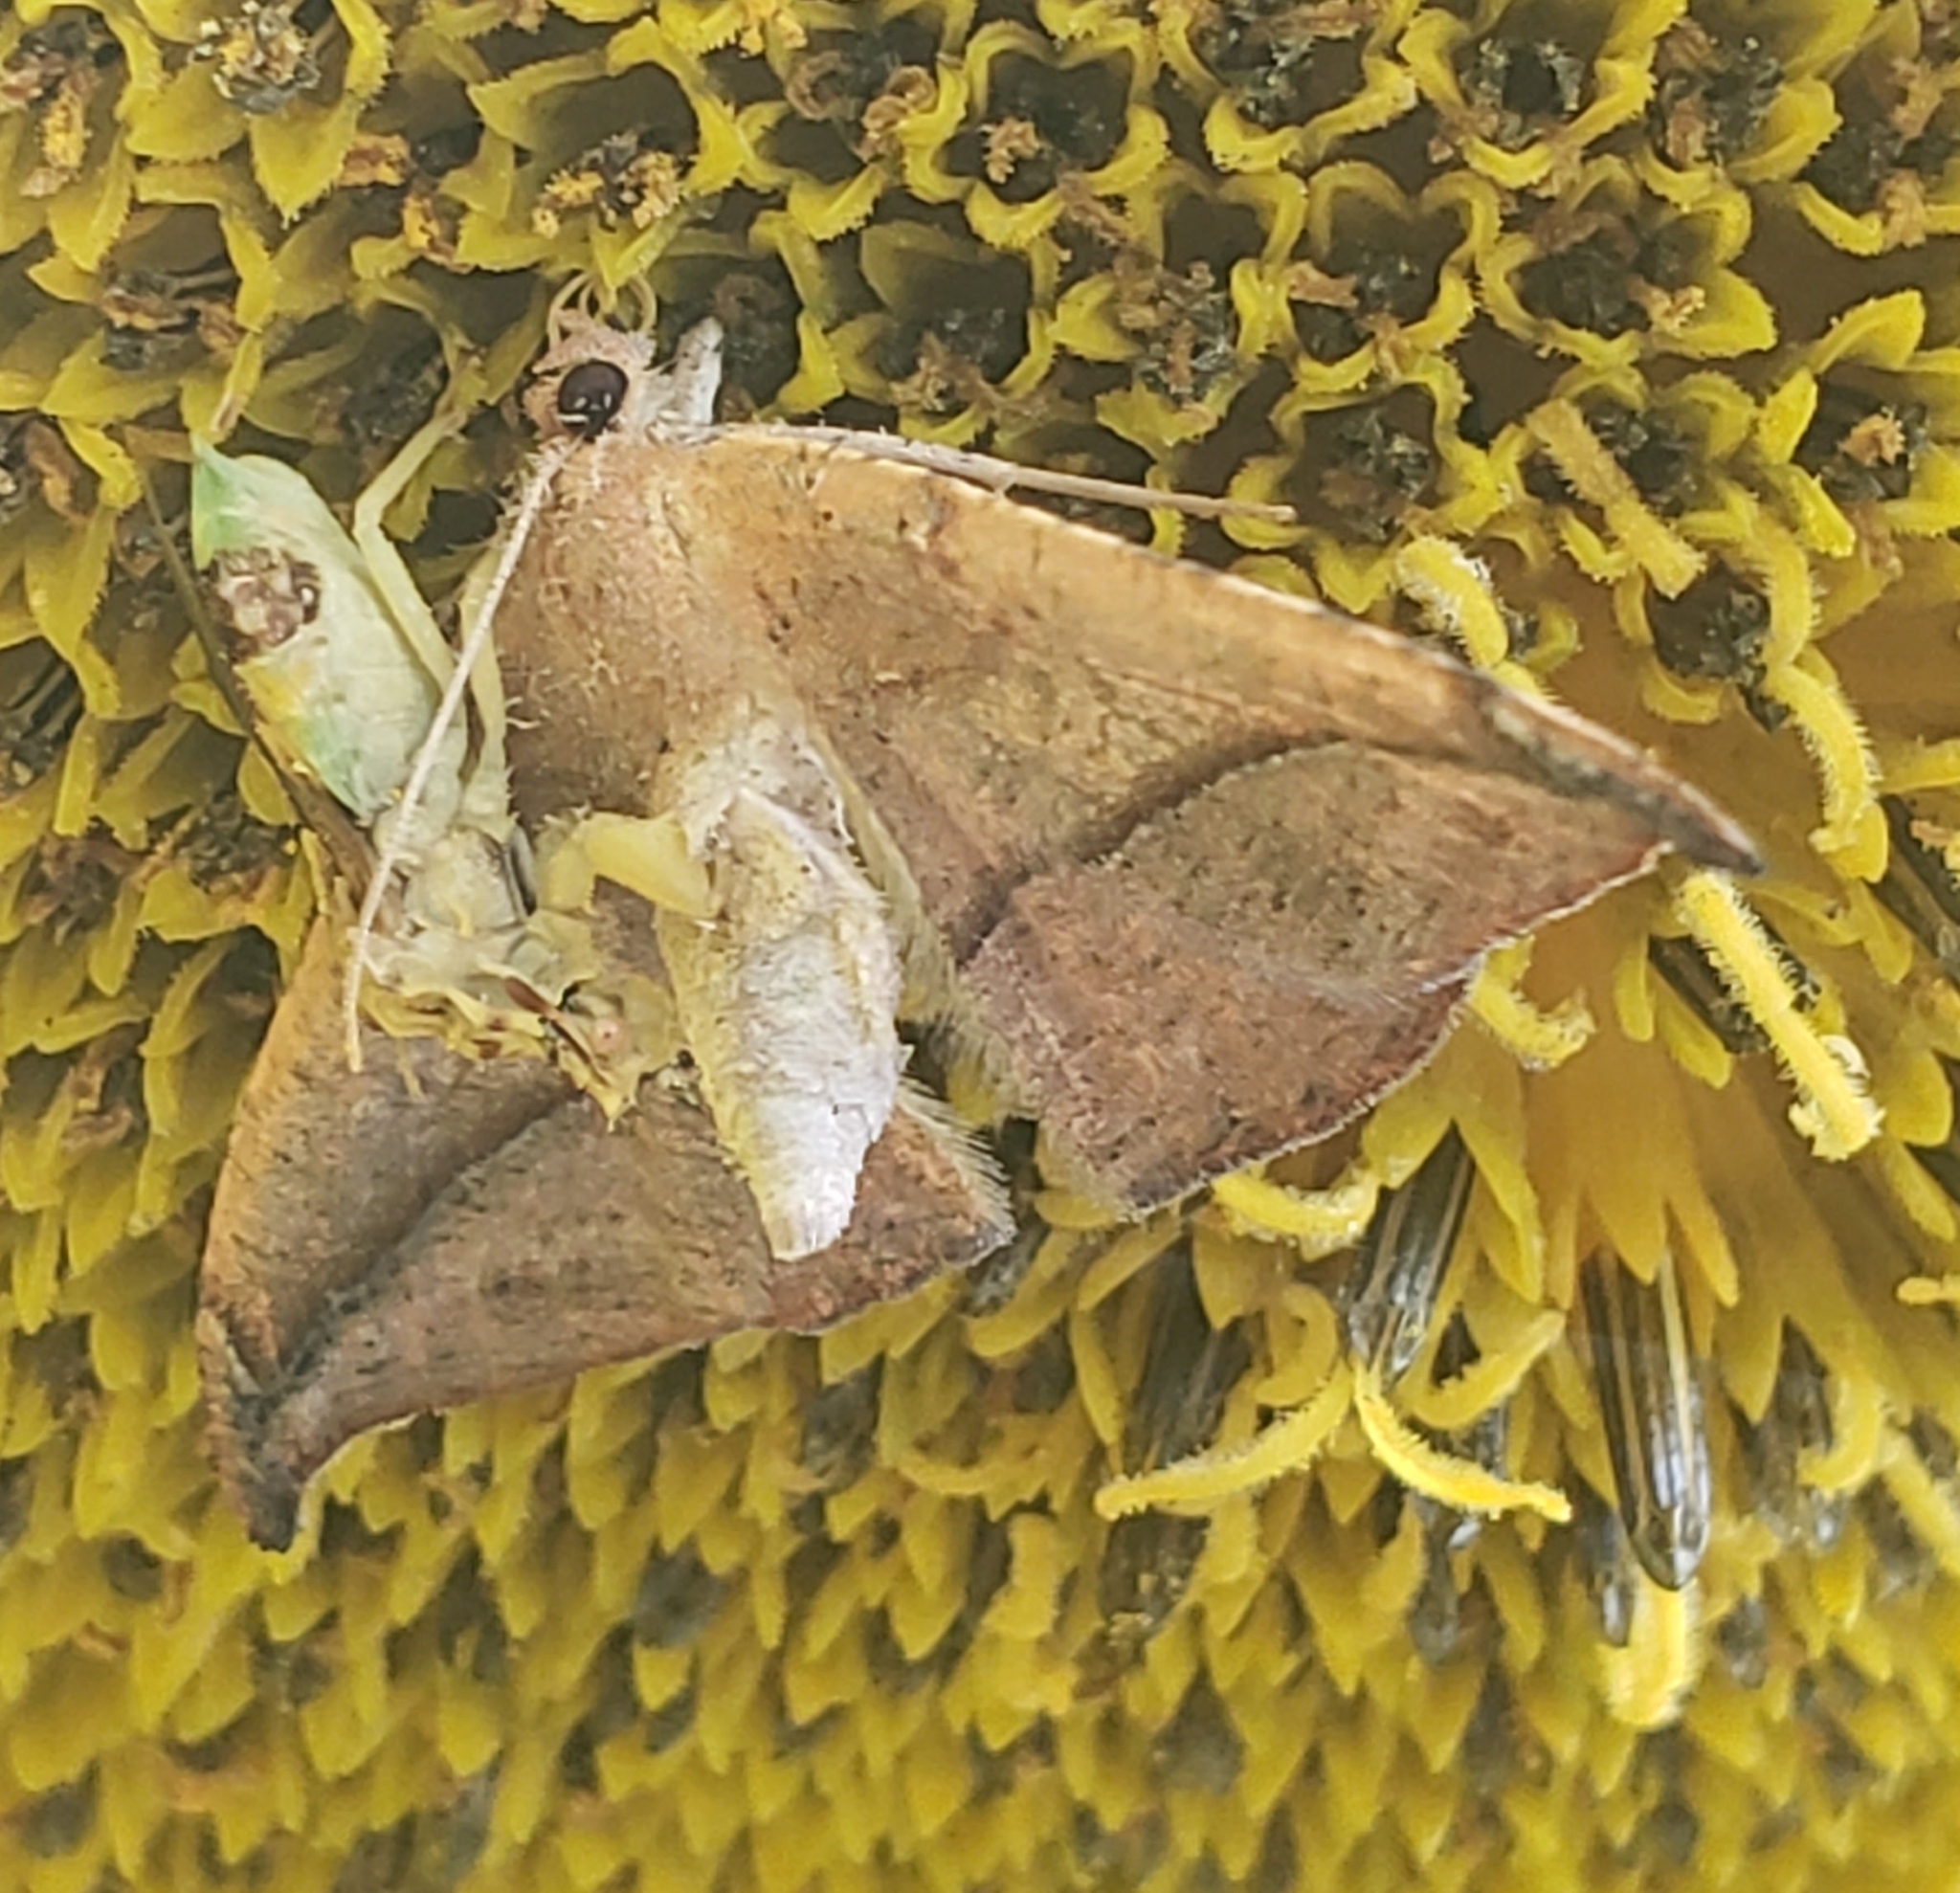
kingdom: Animalia
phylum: Arthropoda
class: Insecta
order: Lepidoptera
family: Geometridae
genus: Patalene
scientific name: Patalene olyzonaria
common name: Juniper geometer moth
